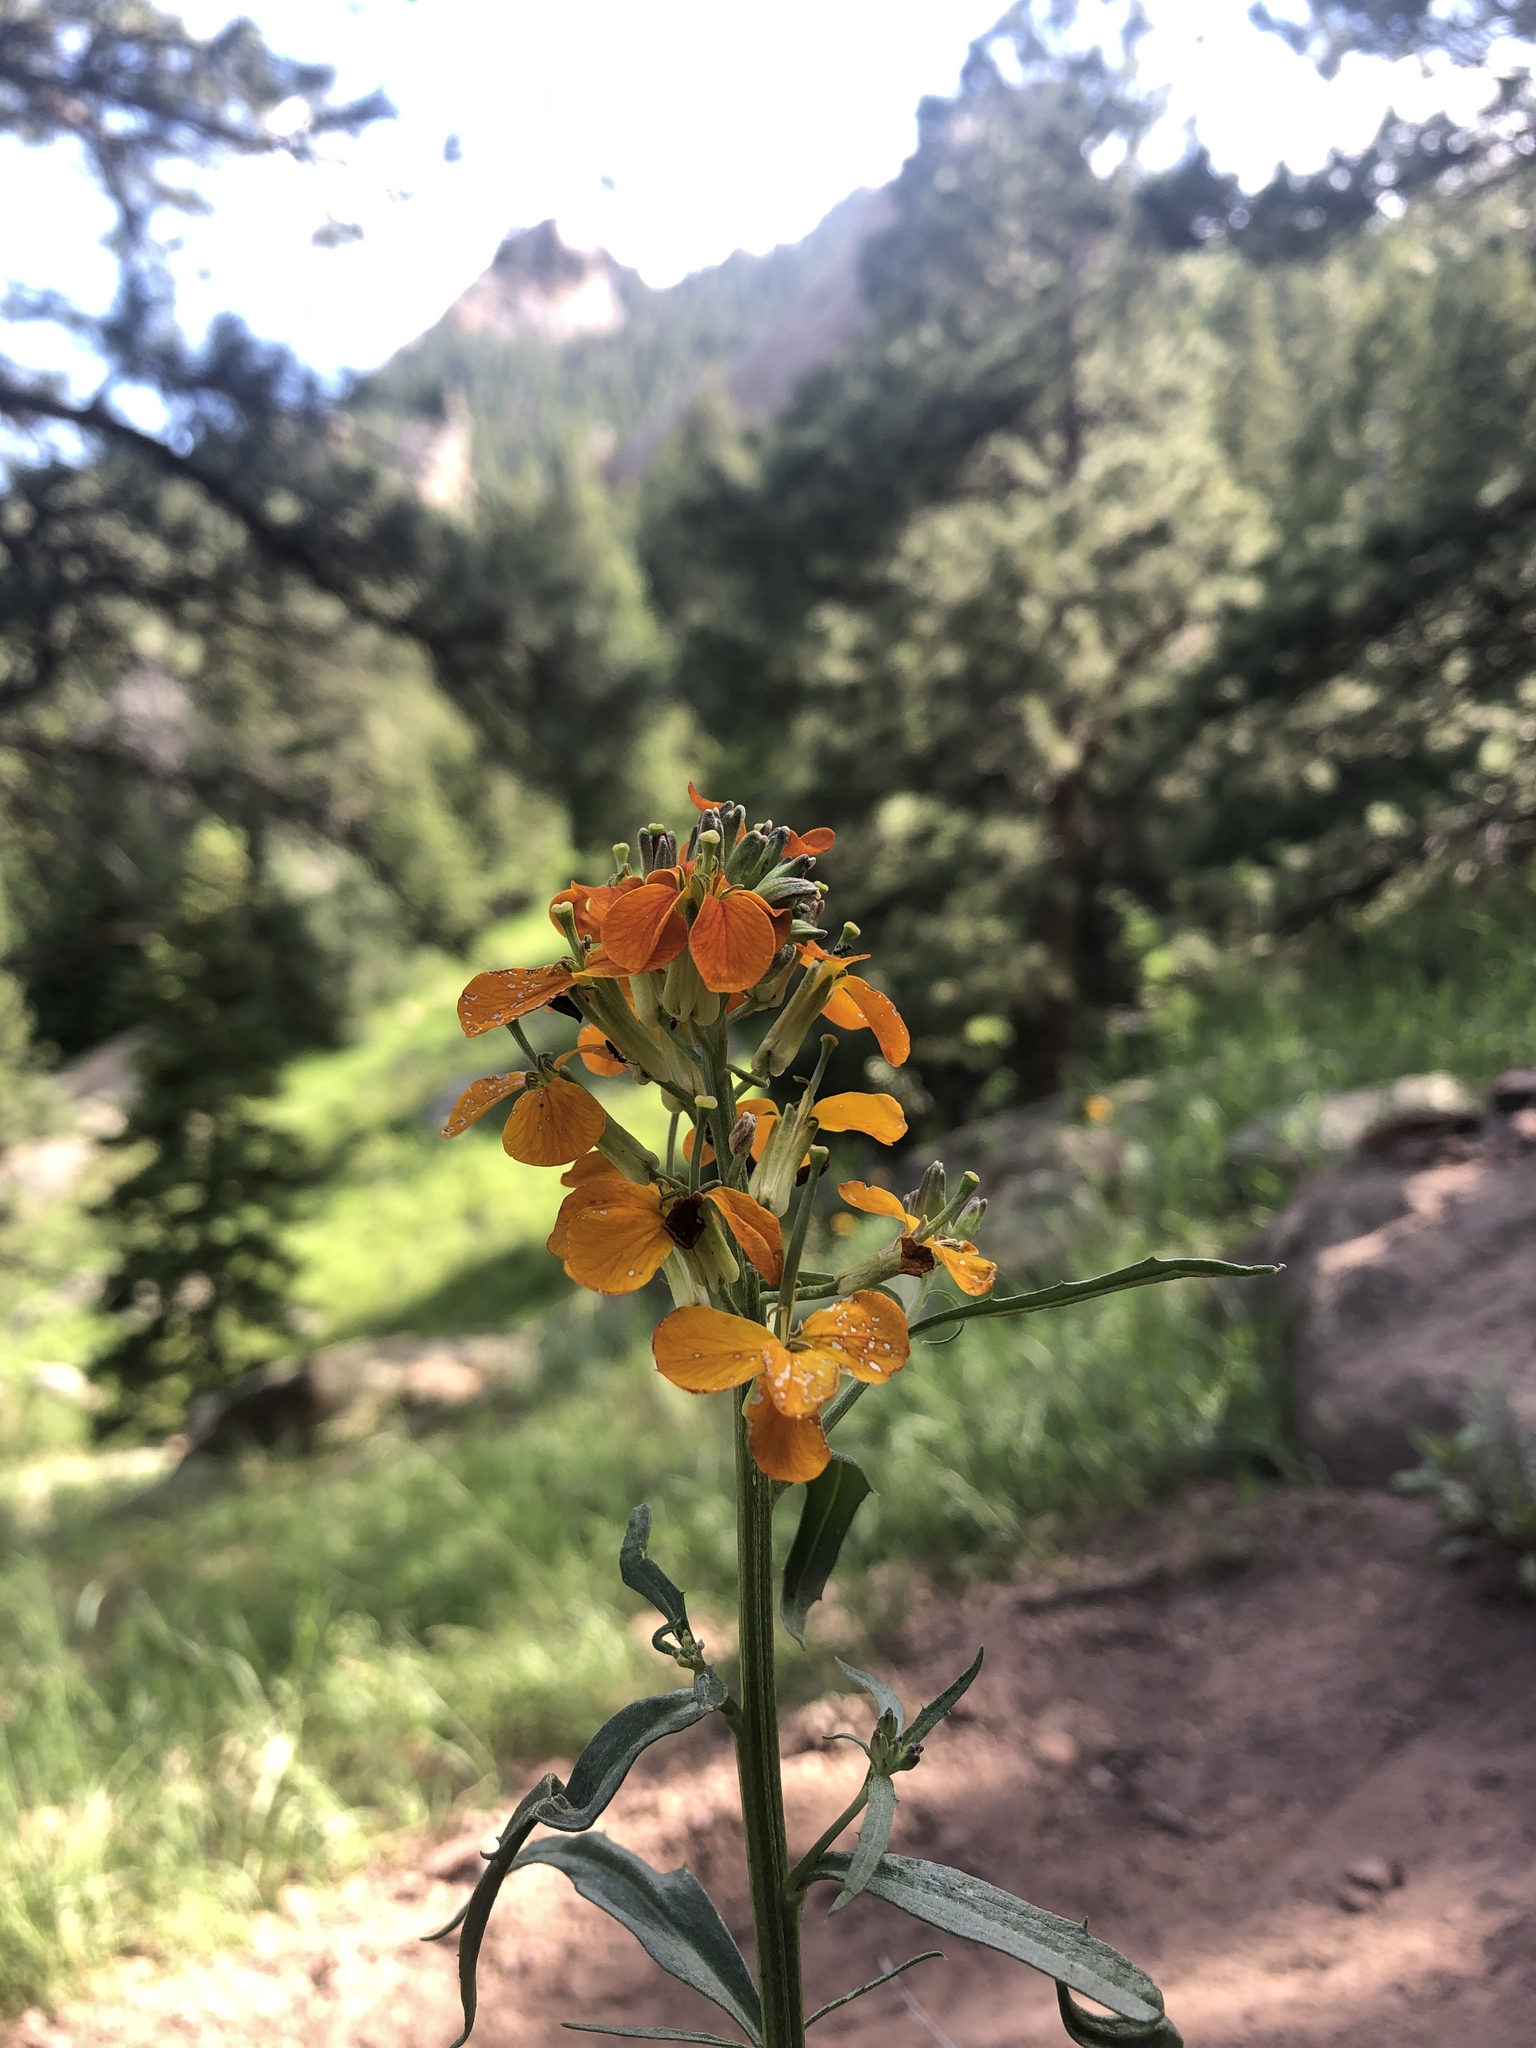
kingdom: Plantae
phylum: Tracheophyta
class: Magnoliopsida
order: Brassicales
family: Brassicaceae
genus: Erysimum
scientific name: Erysimum capitatum
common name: Western wallflower
